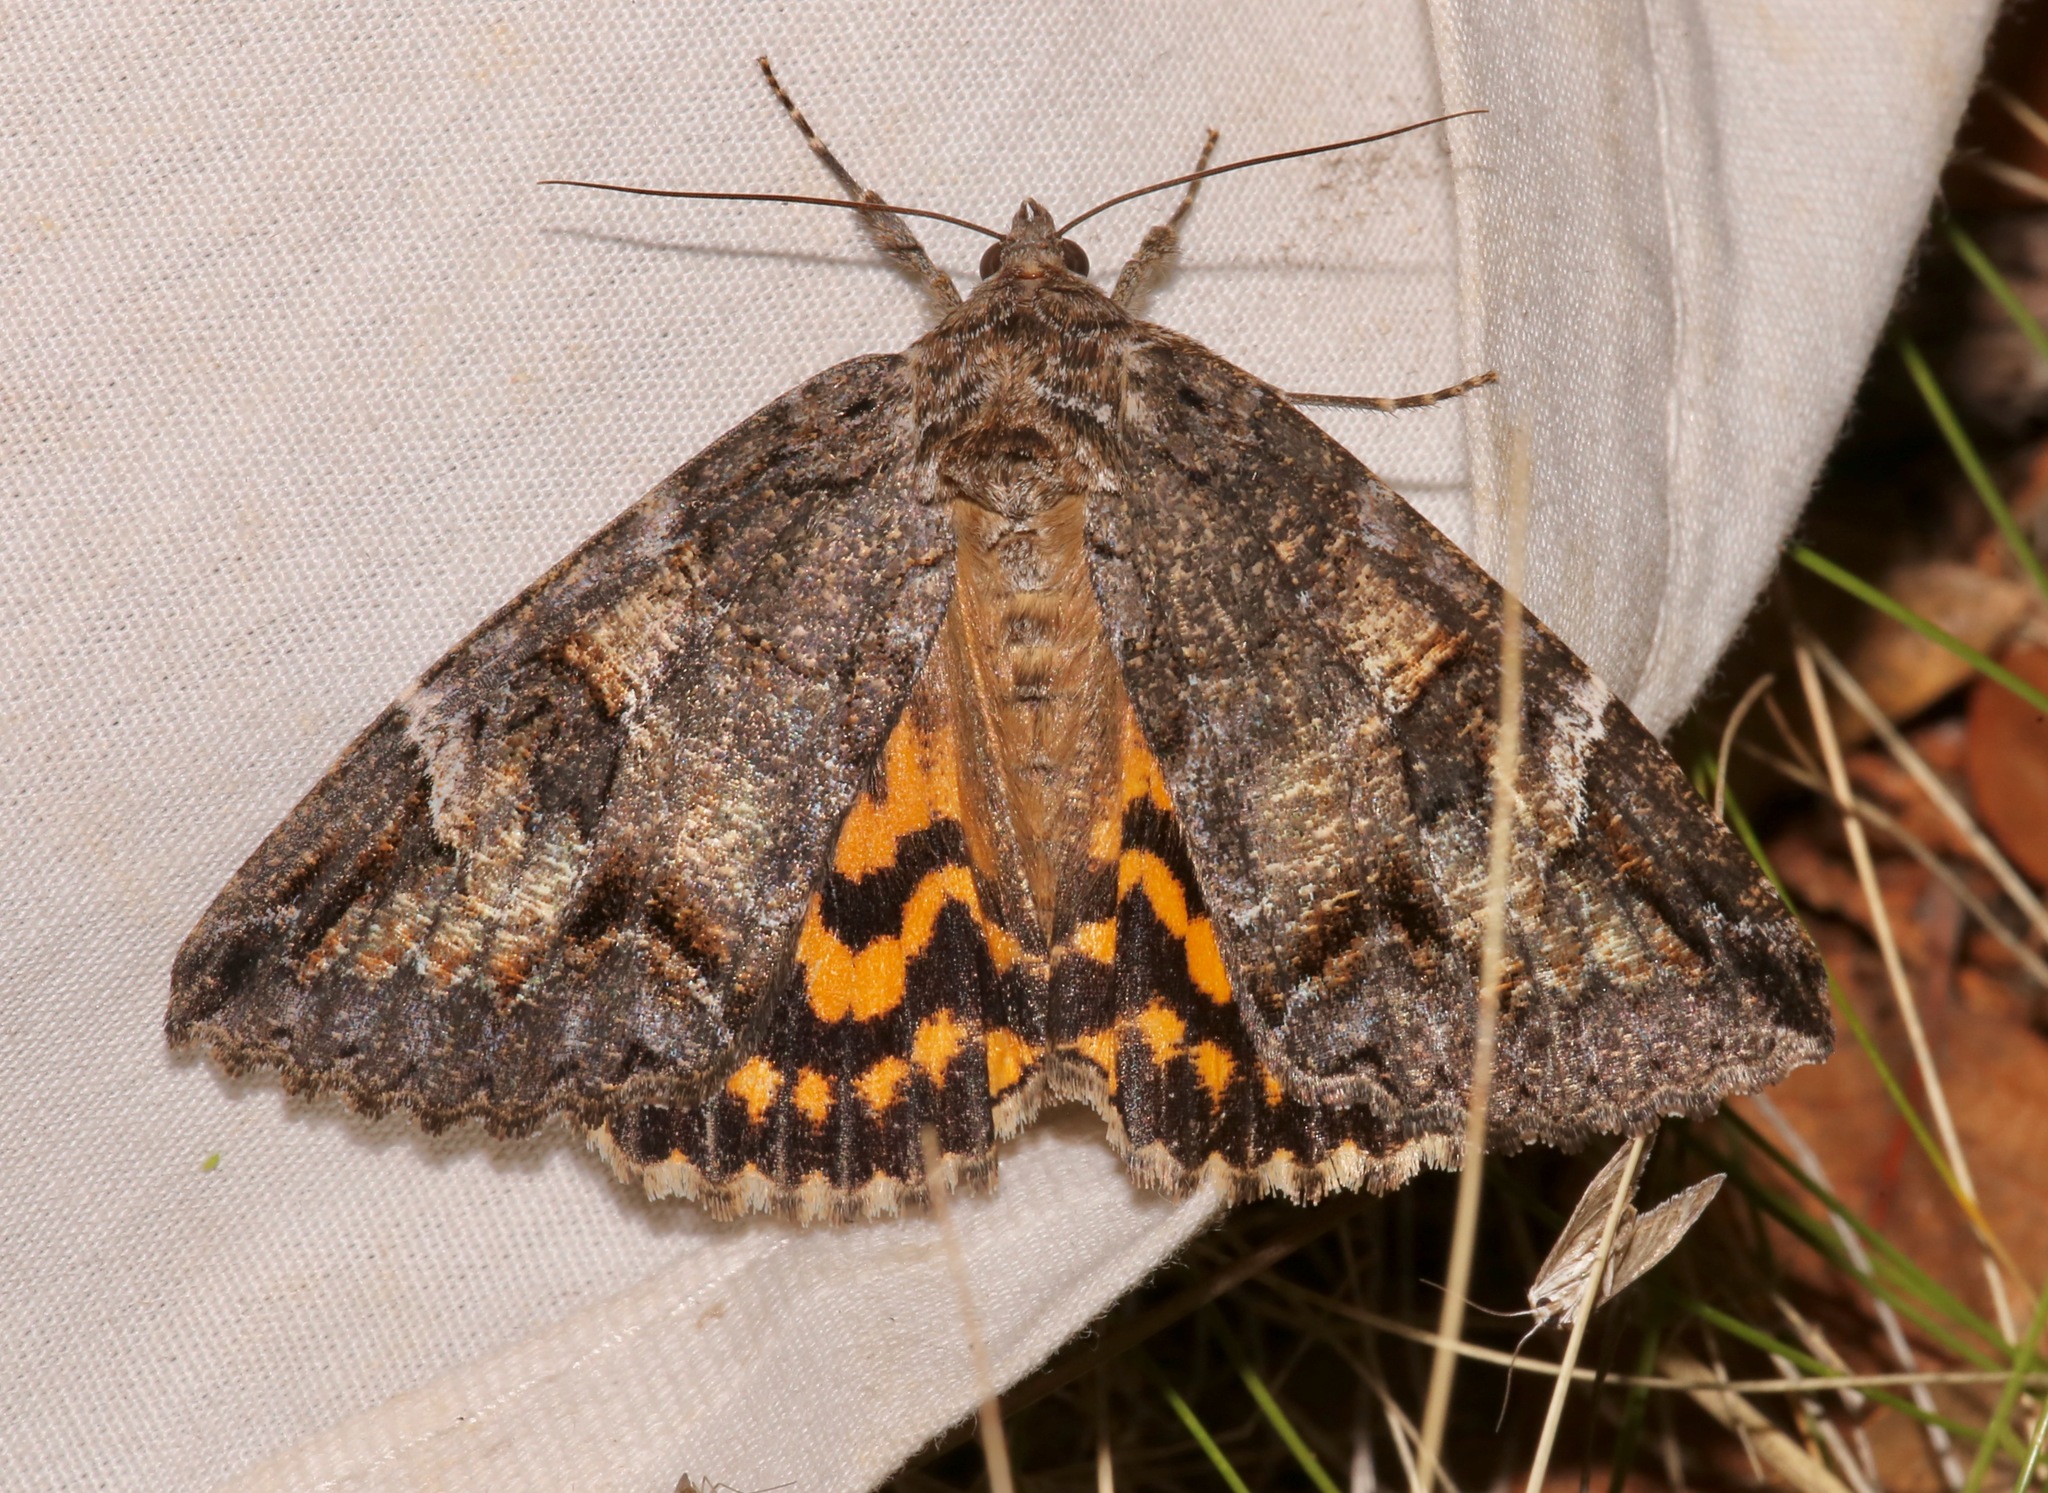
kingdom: Animalia
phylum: Arthropoda
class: Insecta
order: Lepidoptera
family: Erebidae
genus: Euparthenos
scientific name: Euparthenos nubilis
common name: Locust underwing
